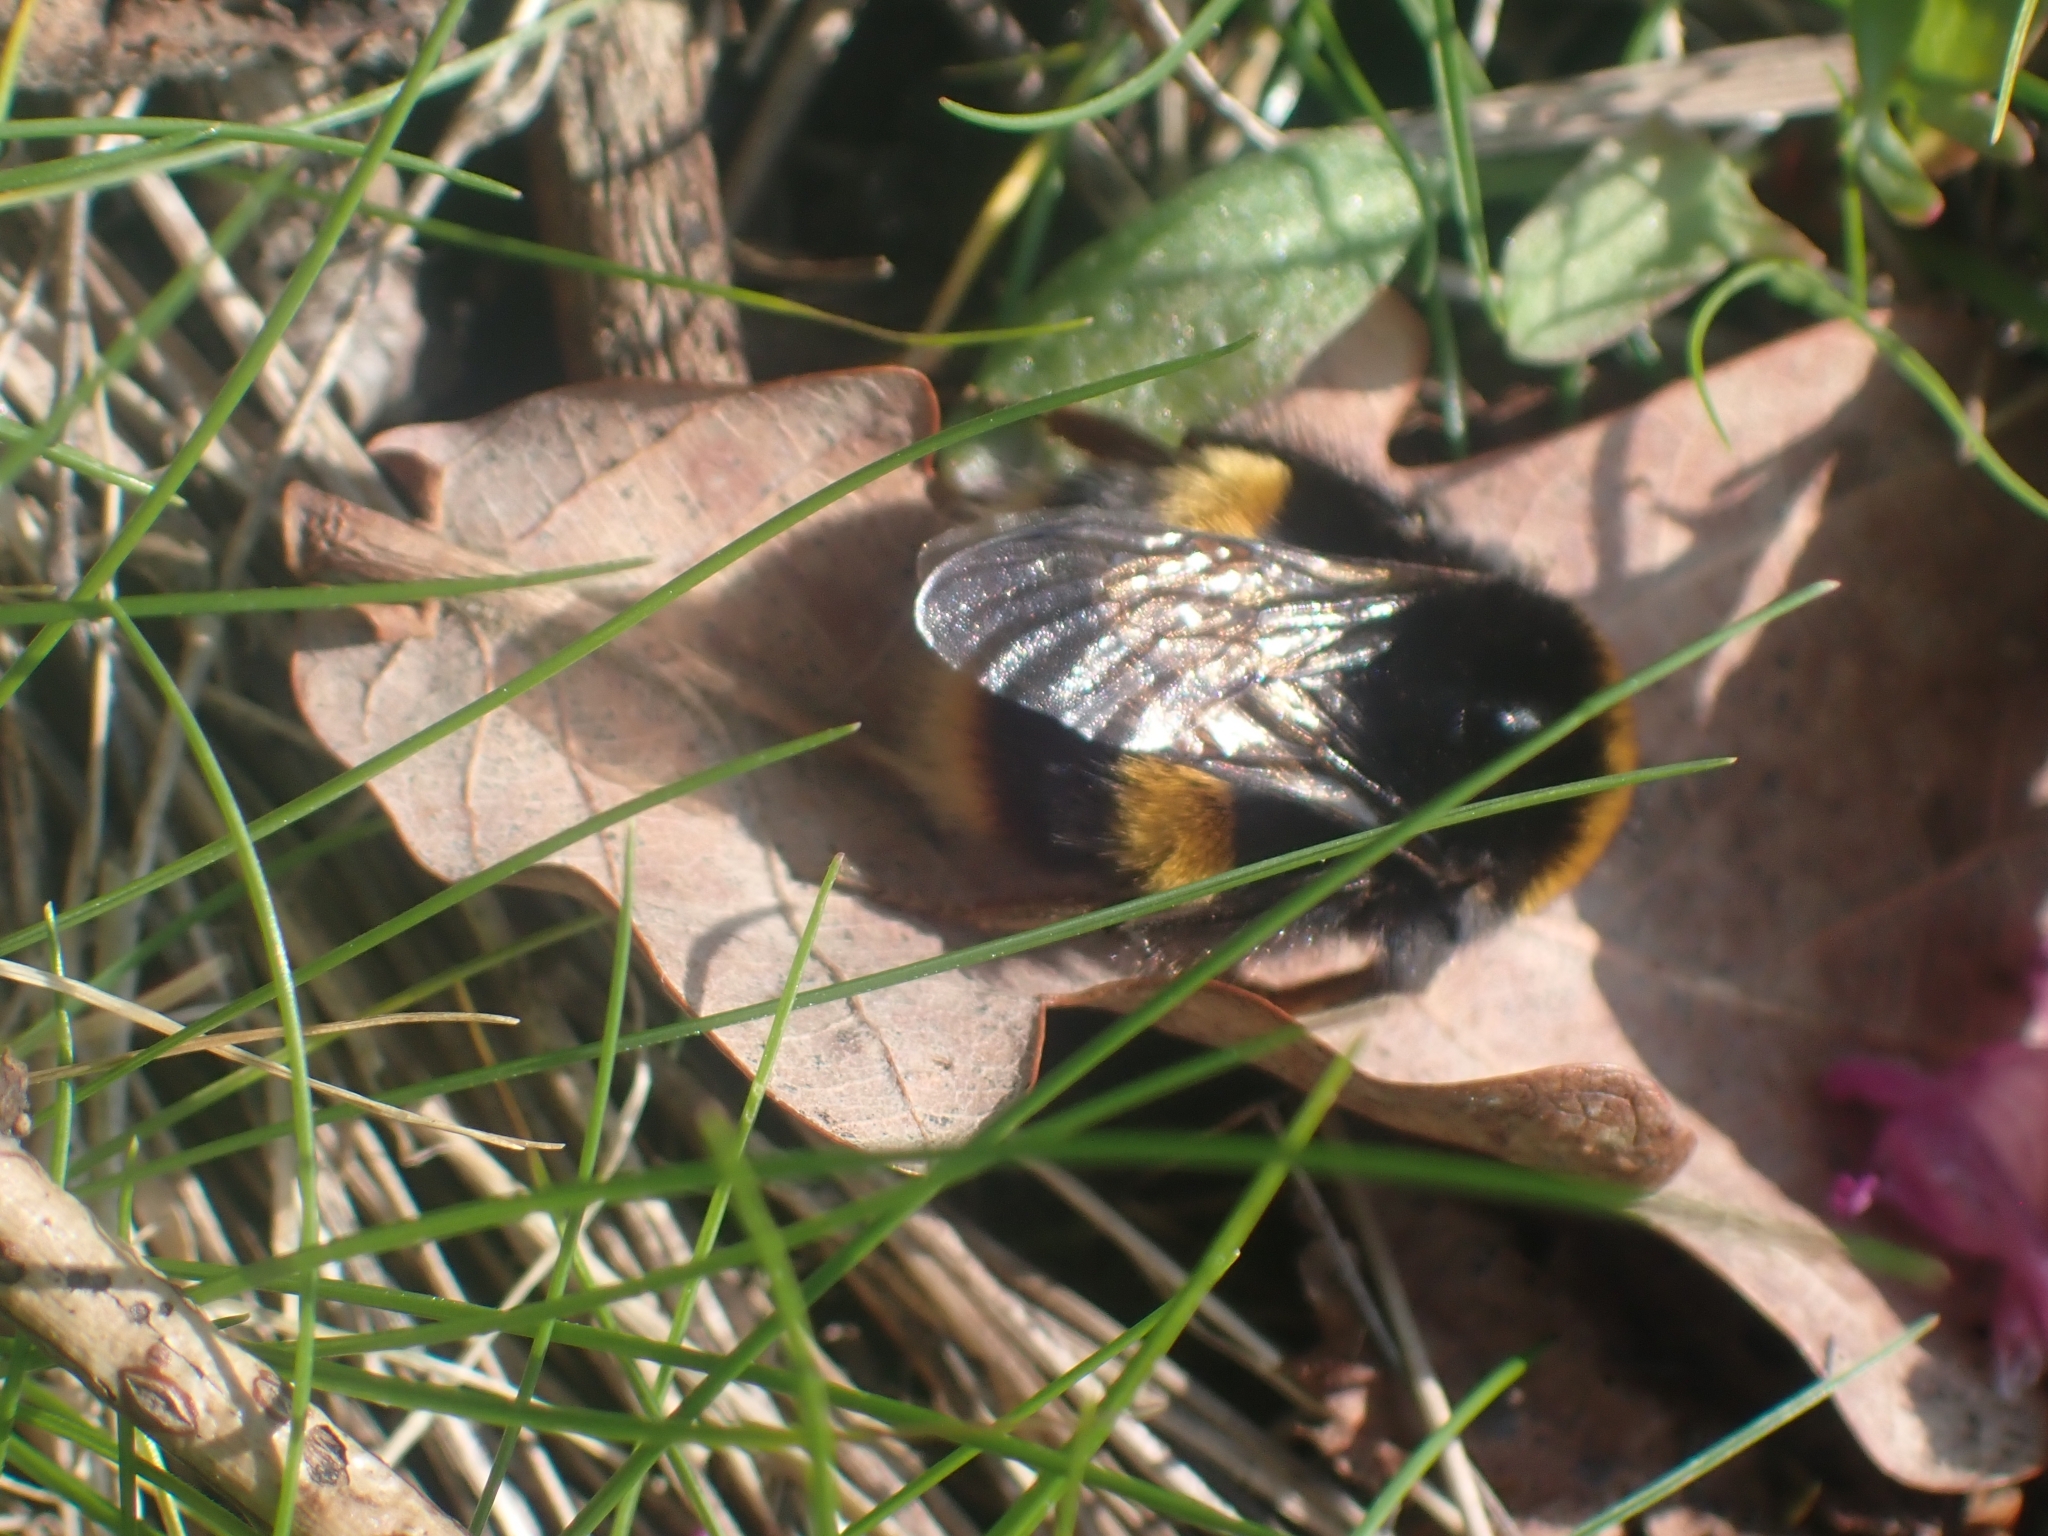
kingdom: Animalia
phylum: Arthropoda
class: Insecta
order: Hymenoptera
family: Apidae
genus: Bombus
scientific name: Bombus terrestris
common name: Buff-tailed bumblebee
